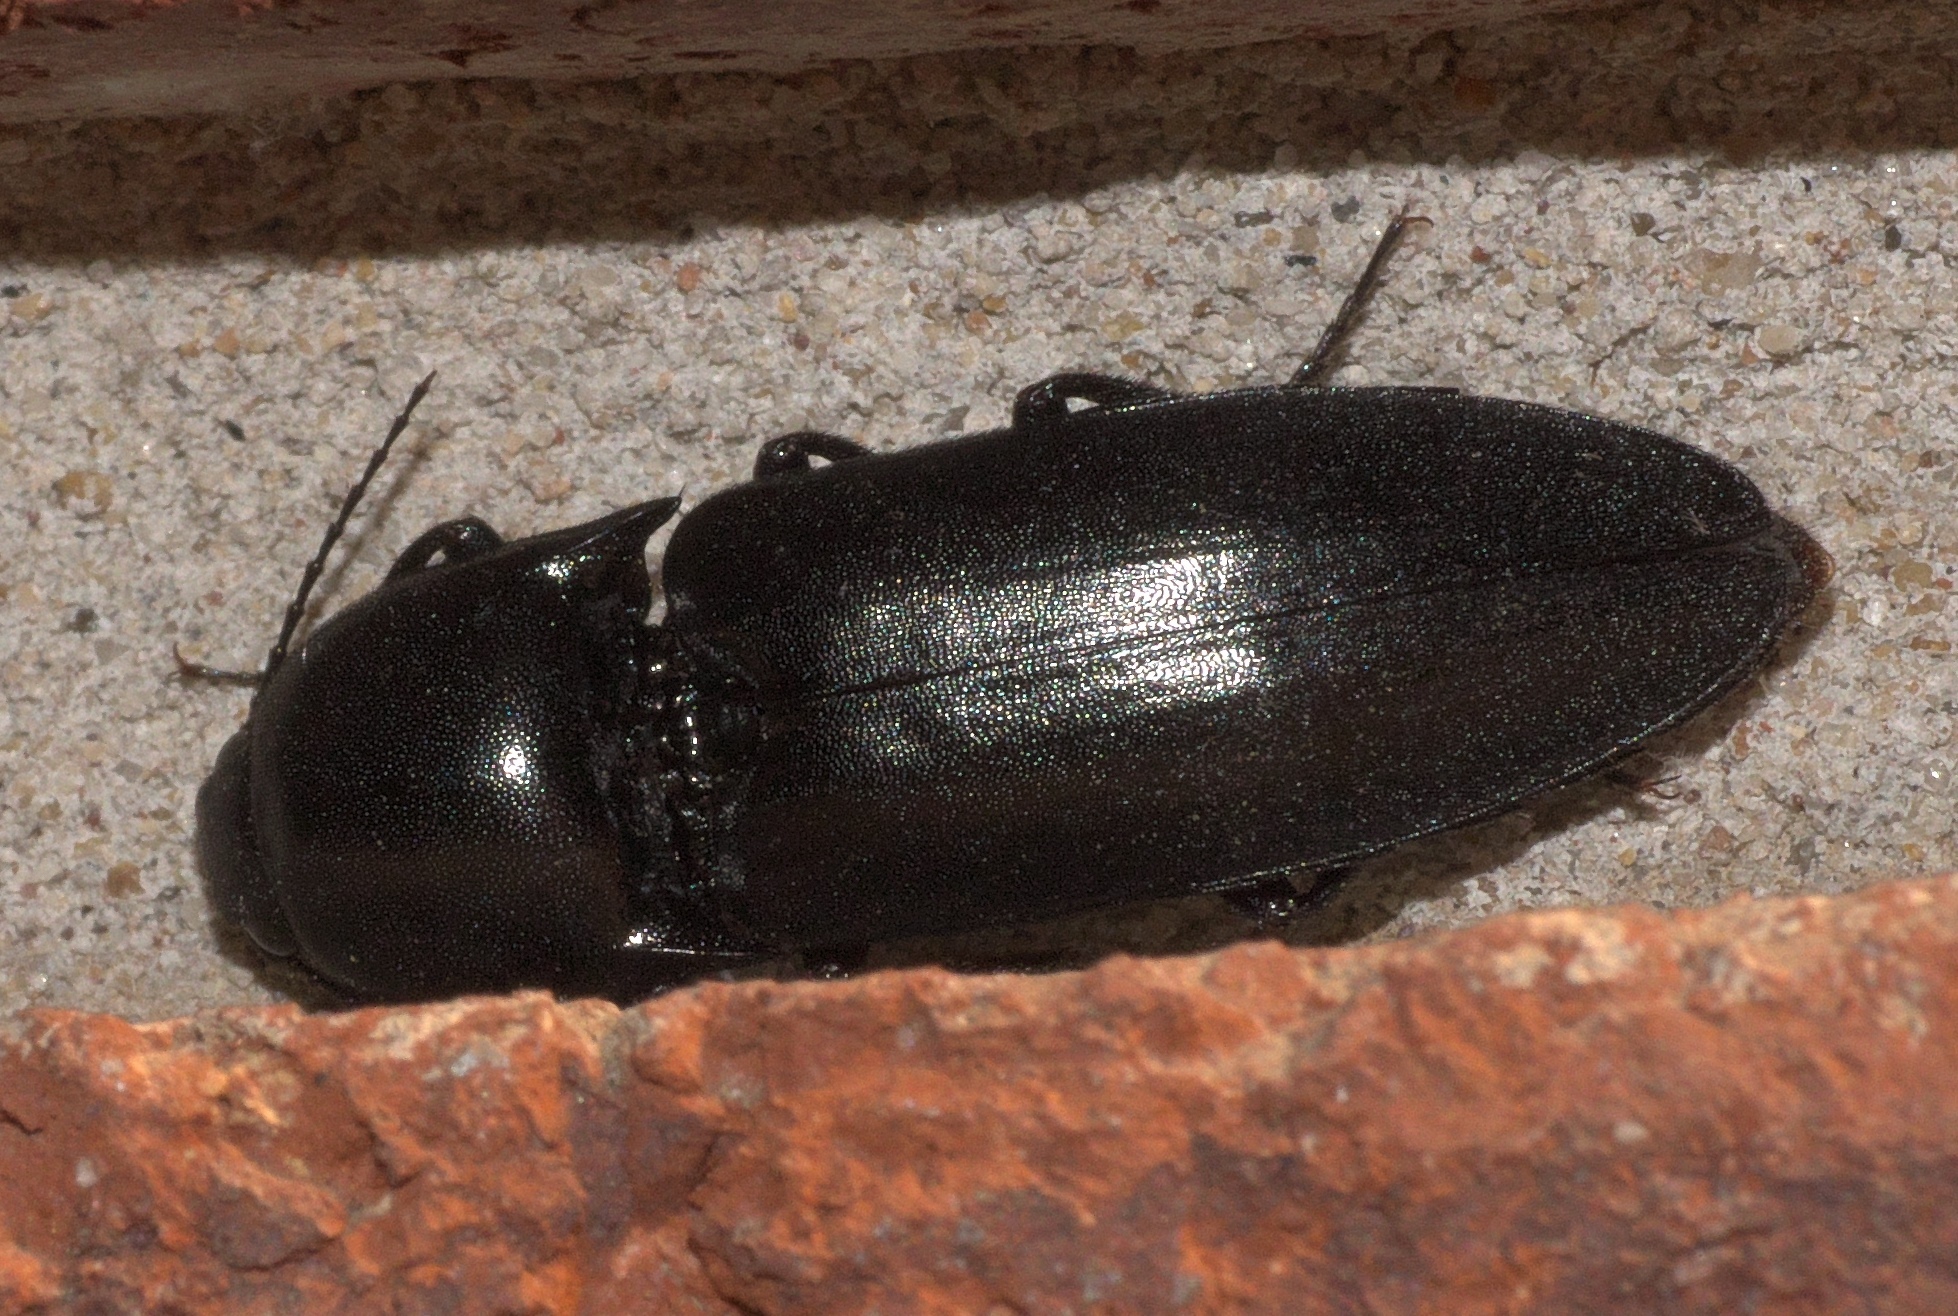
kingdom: Animalia
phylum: Arthropoda
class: Insecta
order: Coleoptera
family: Elateridae
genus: Elater
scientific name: Elater abruptus
